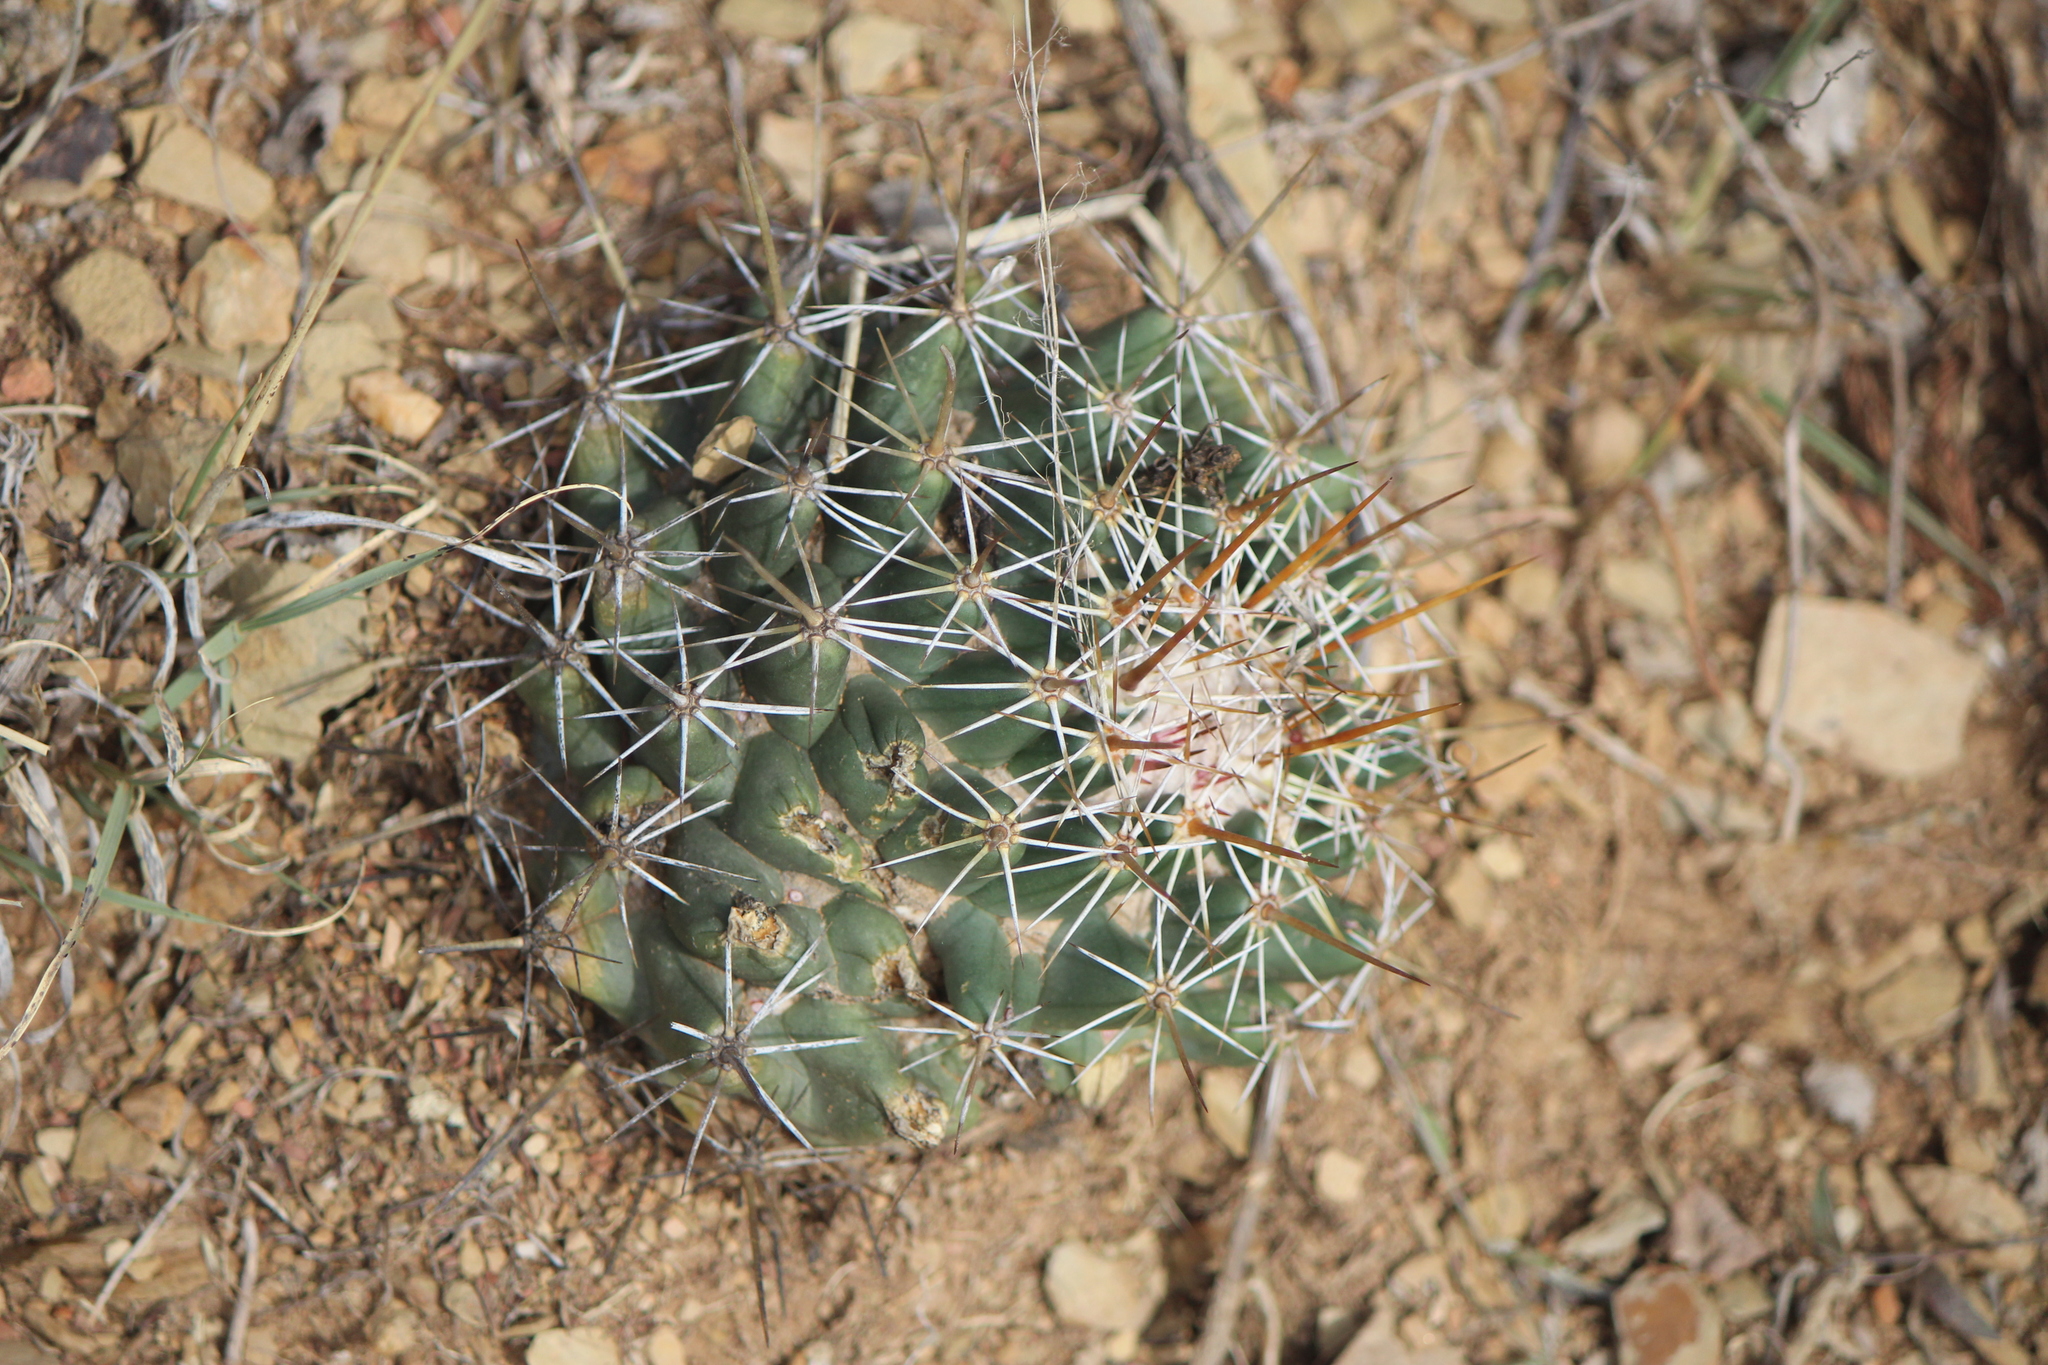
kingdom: Plantae
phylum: Tracheophyta
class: Magnoliopsida
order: Caryophyllales
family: Cactaceae
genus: Coryphantha
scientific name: Coryphantha clavata
